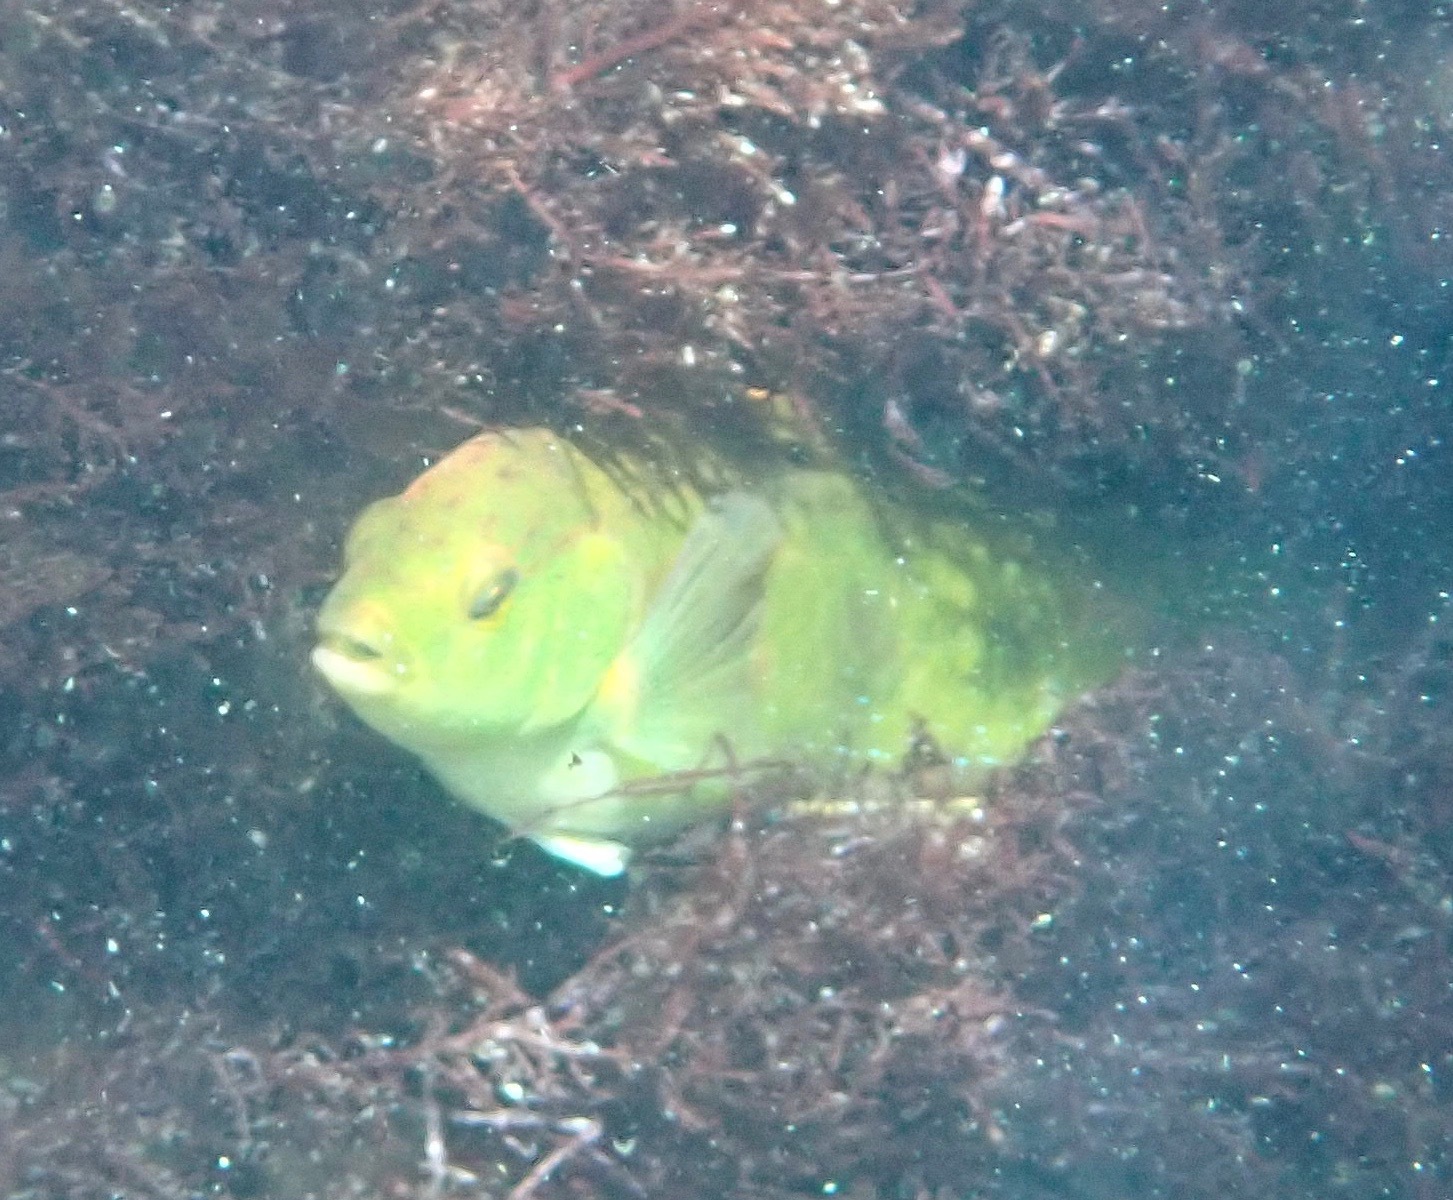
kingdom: Animalia
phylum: Chordata
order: Perciformes
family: Labridae
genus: Pictilabrus
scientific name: Pictilabrus laticlavius
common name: Patrician wrasse
